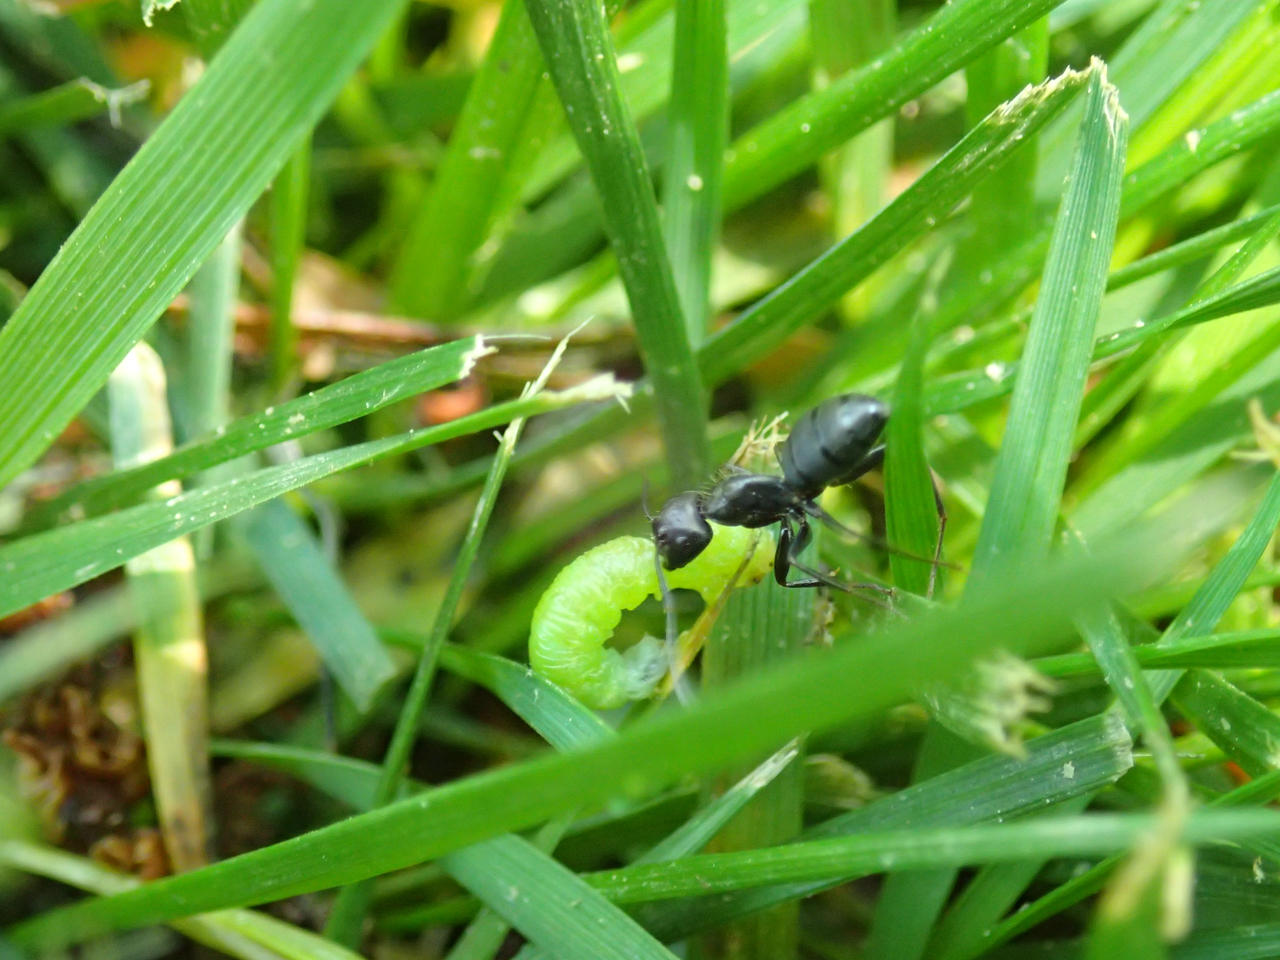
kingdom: Animalia
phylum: Arthropoda
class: Insecta
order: Hymenoptera
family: Formicidae
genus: Camponotus
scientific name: Camponotus pennsylvanicus
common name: Black carpenter ant
